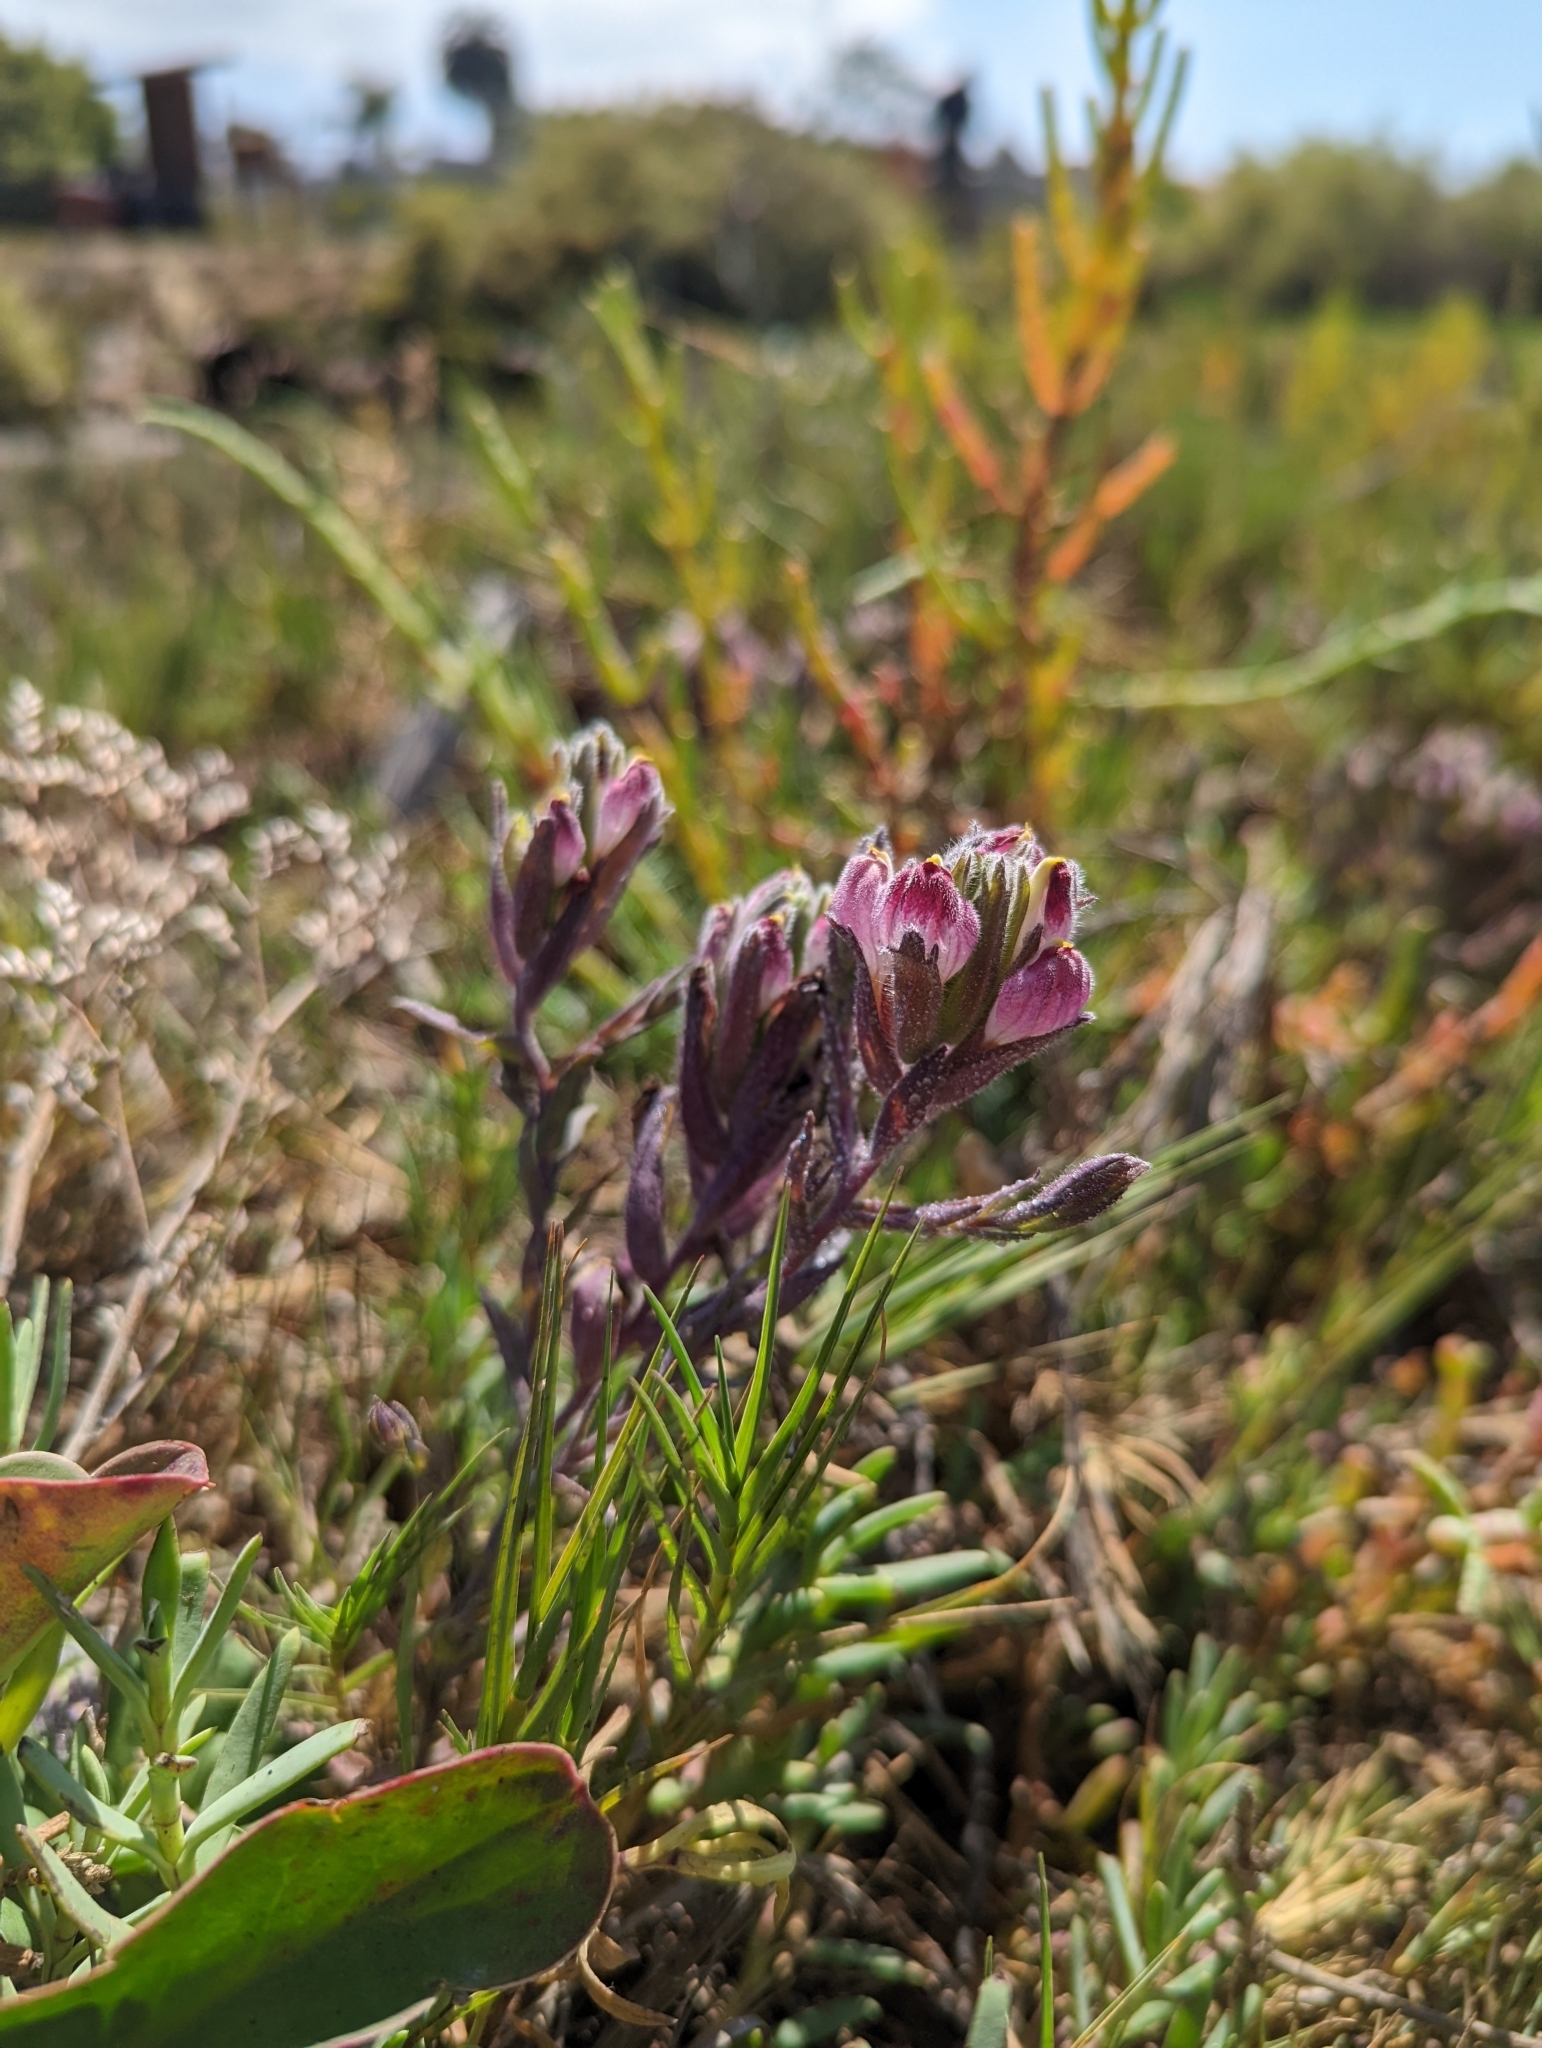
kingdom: Plantae
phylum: Tracheophyta
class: Magnoliopsida
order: Lamiales
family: Orobanchaceae
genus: Chloropyron
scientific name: Chloropyron maritimum
